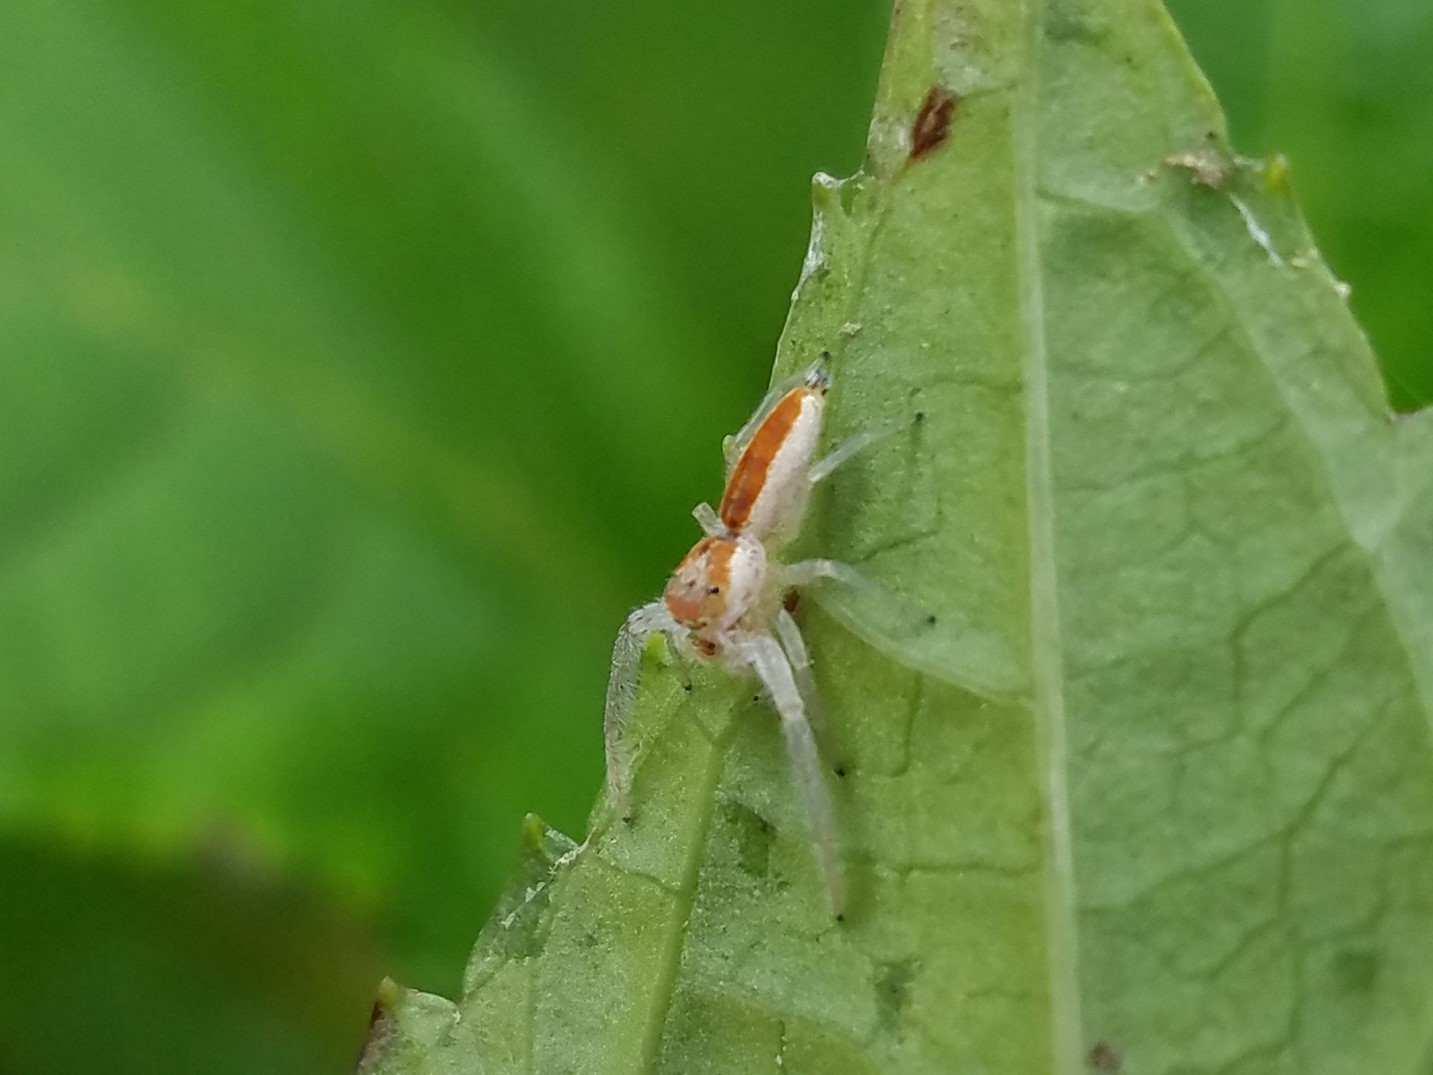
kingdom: Animalia
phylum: Arthropoda
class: Arachnida
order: Araneae
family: Salticidae
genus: Hentzia
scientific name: Hentzia mitrata
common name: White-jawed jumping spider
